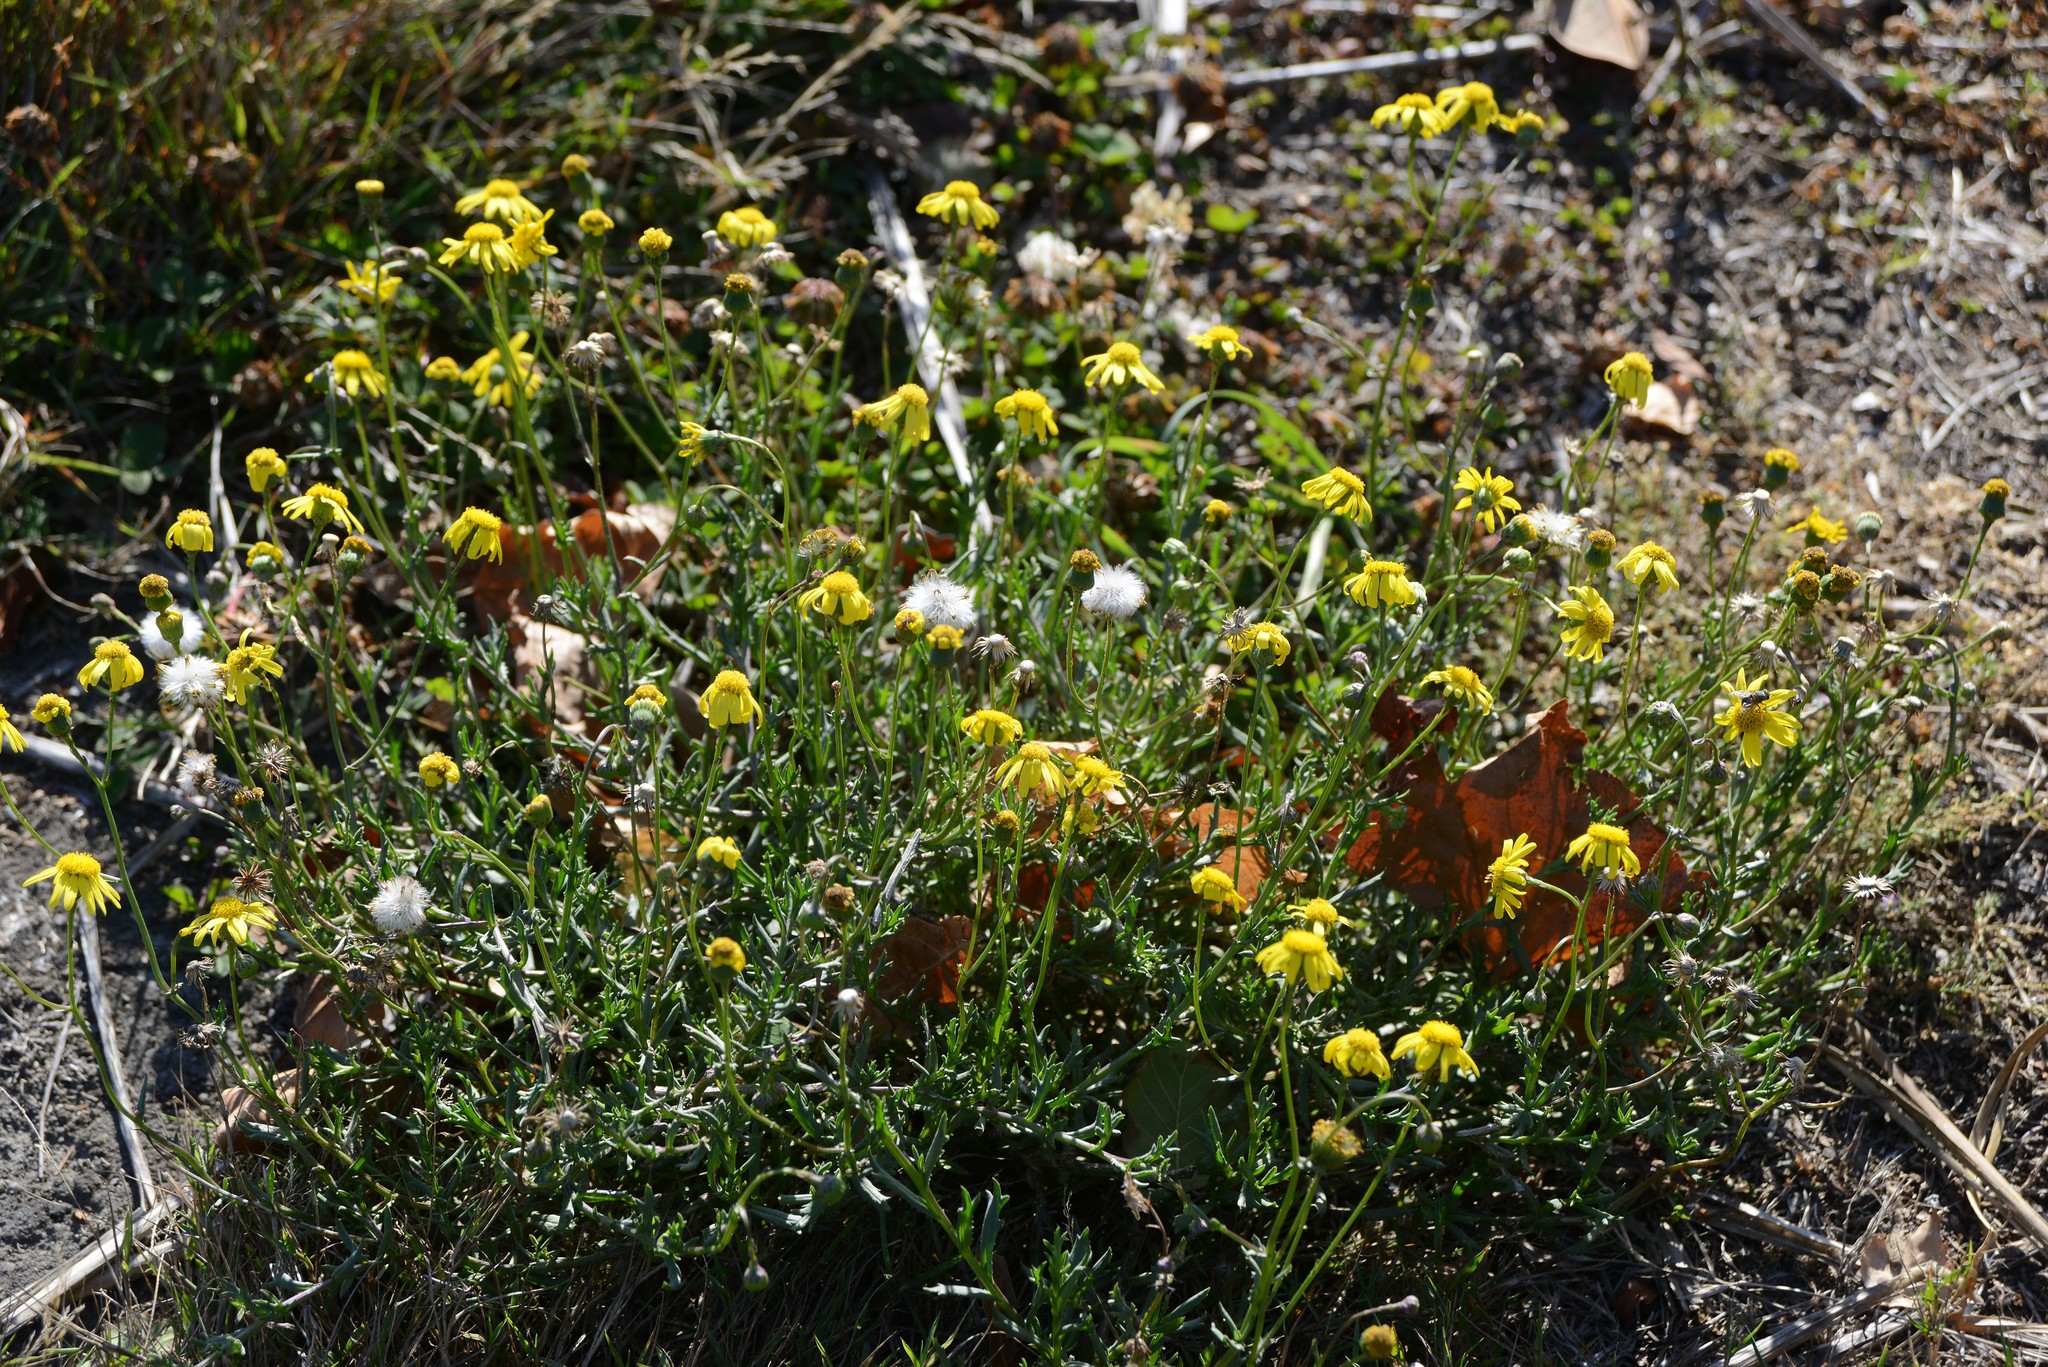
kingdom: Plantae
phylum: Tracheophyta
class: Magnoliopsida
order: Asterales
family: Asteraceae
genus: Senecio
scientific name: Senecio skirrhodon
